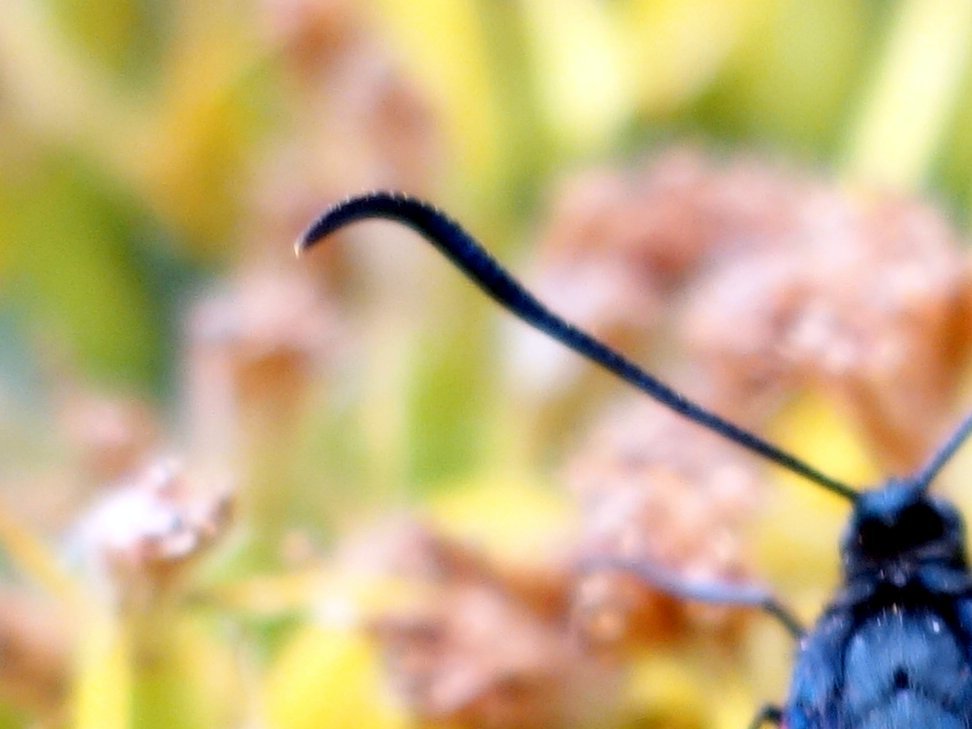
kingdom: Animalia
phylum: Arthropoda
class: Insecta
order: Lepidoptera
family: Zygaenidae
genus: Zygaena
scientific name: Zygaena lonicerae
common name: Narrow-bordered five-spot burnet
